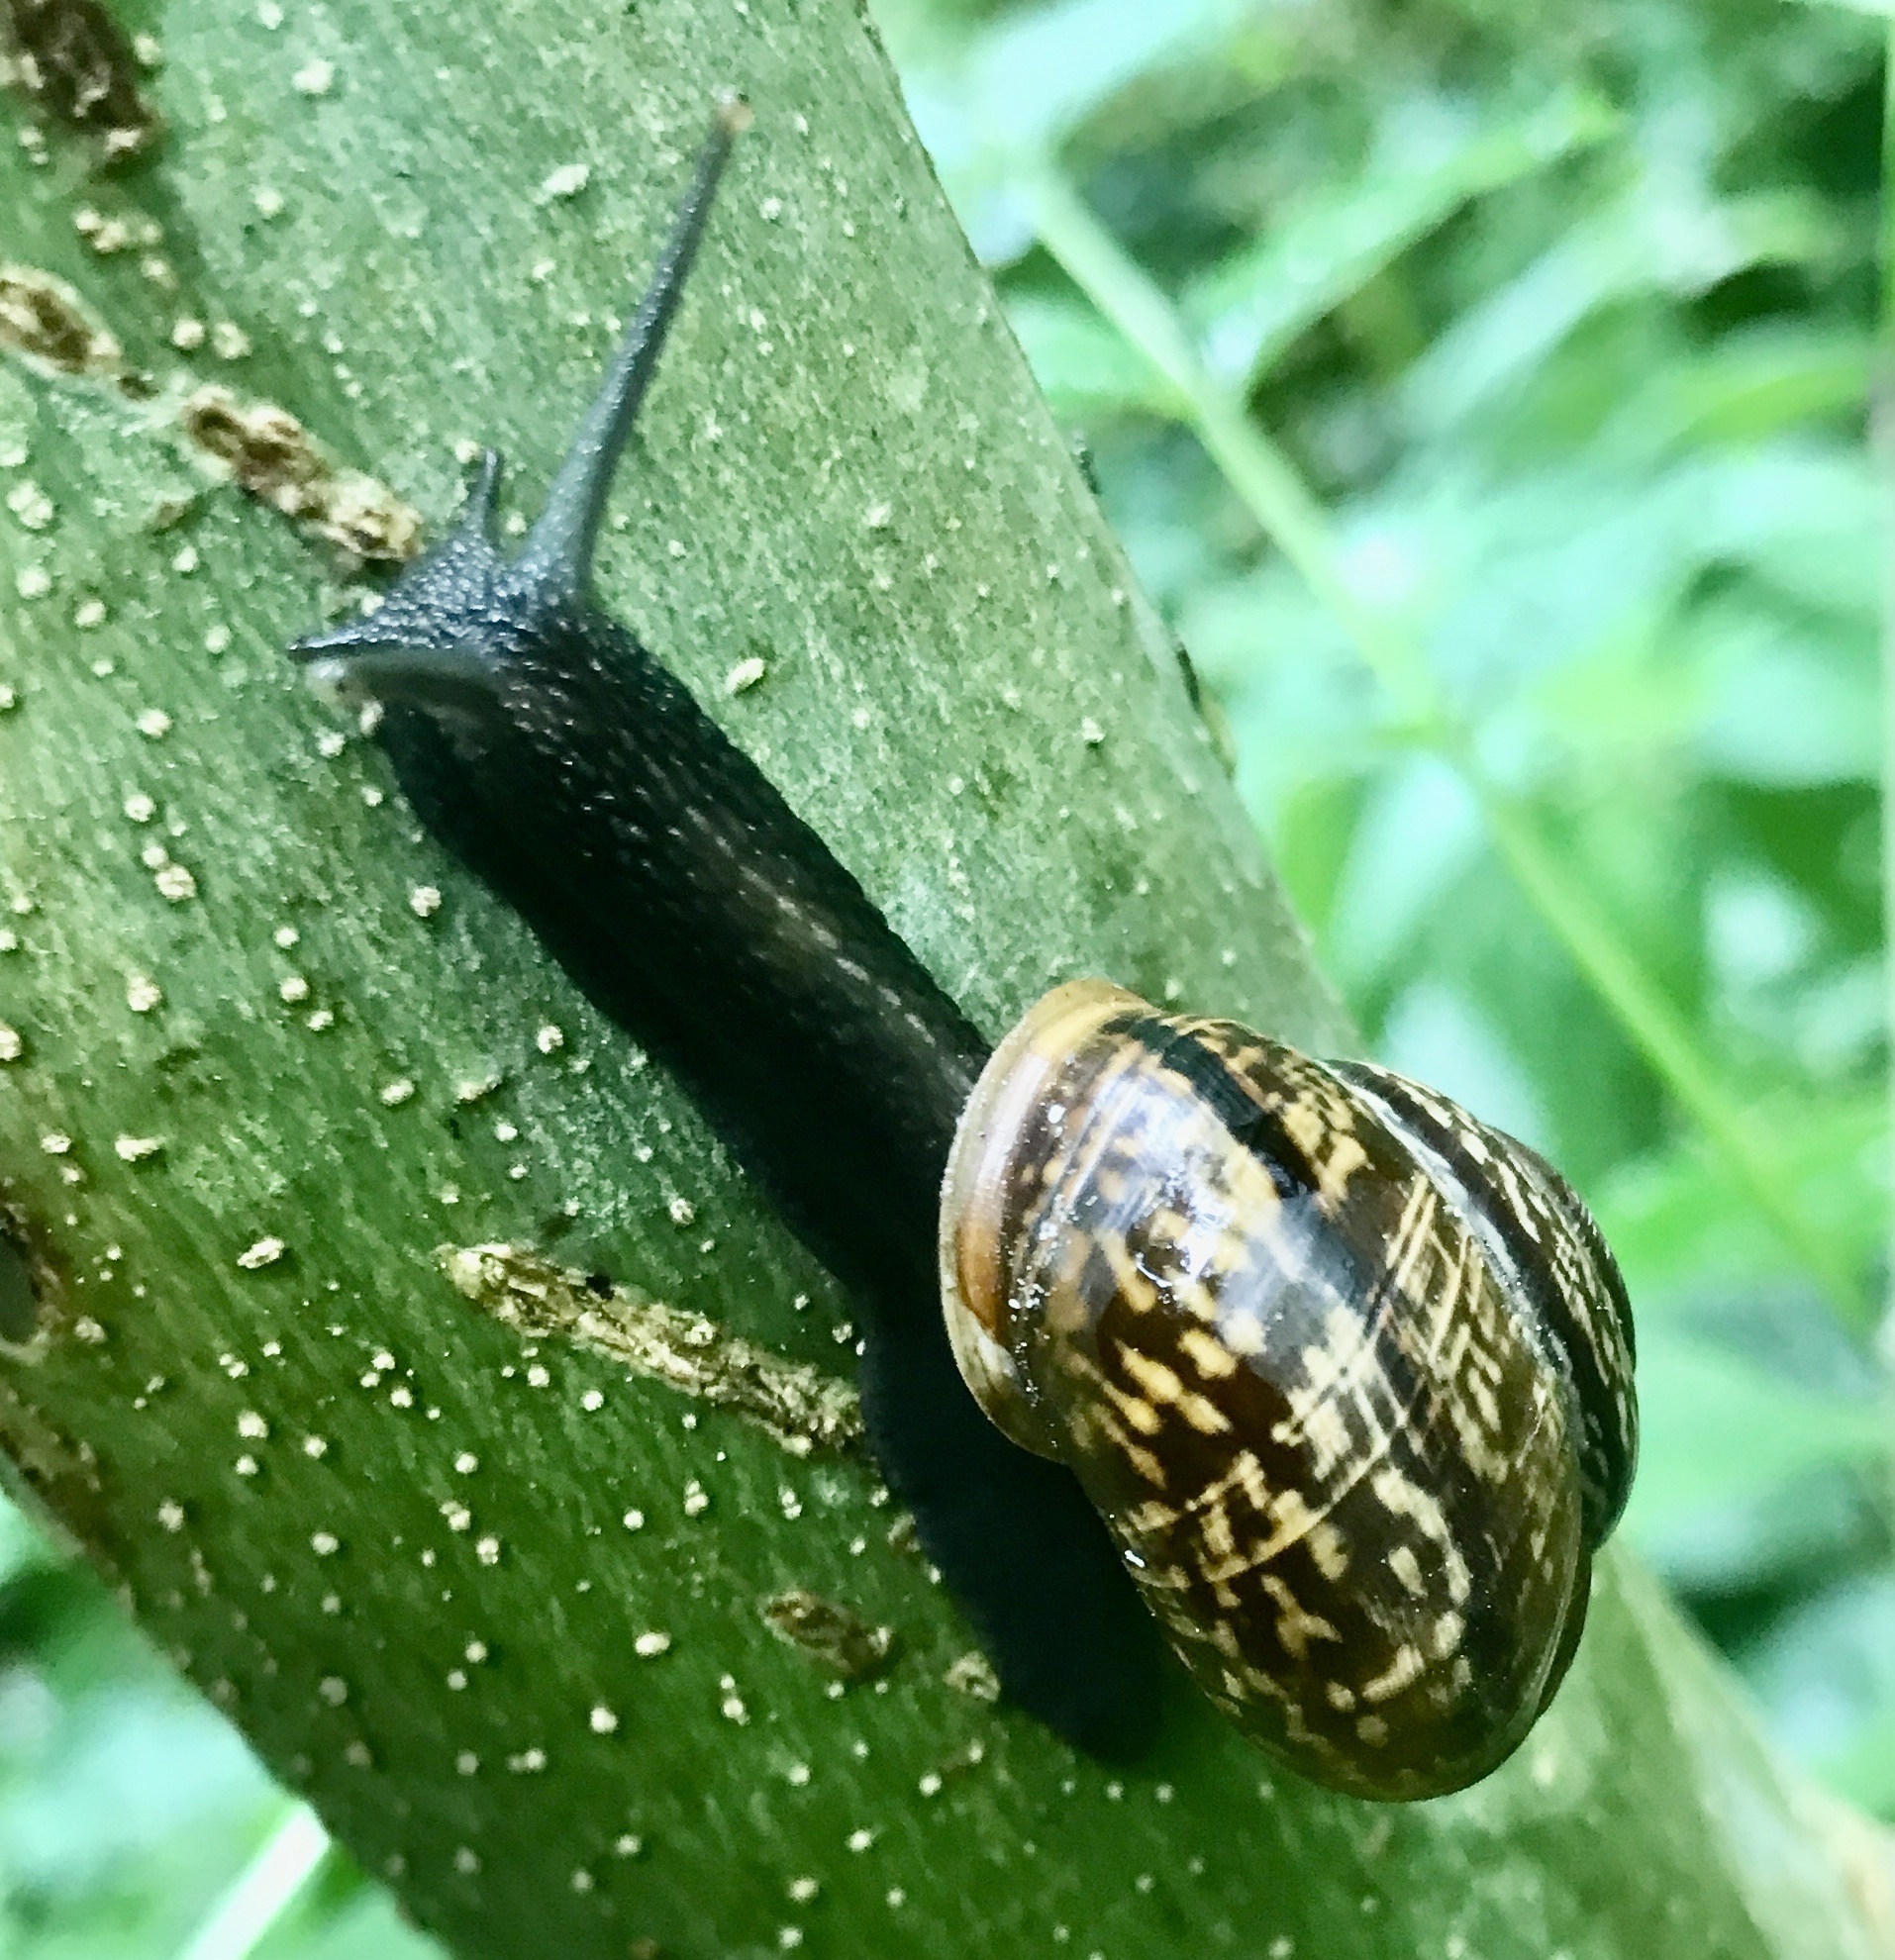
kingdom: Animalia
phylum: Mollusca
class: Gastropoda
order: Stylommatophora
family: Helicidae
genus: Arianta
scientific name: Arianta arbustorum
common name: Copse snail
